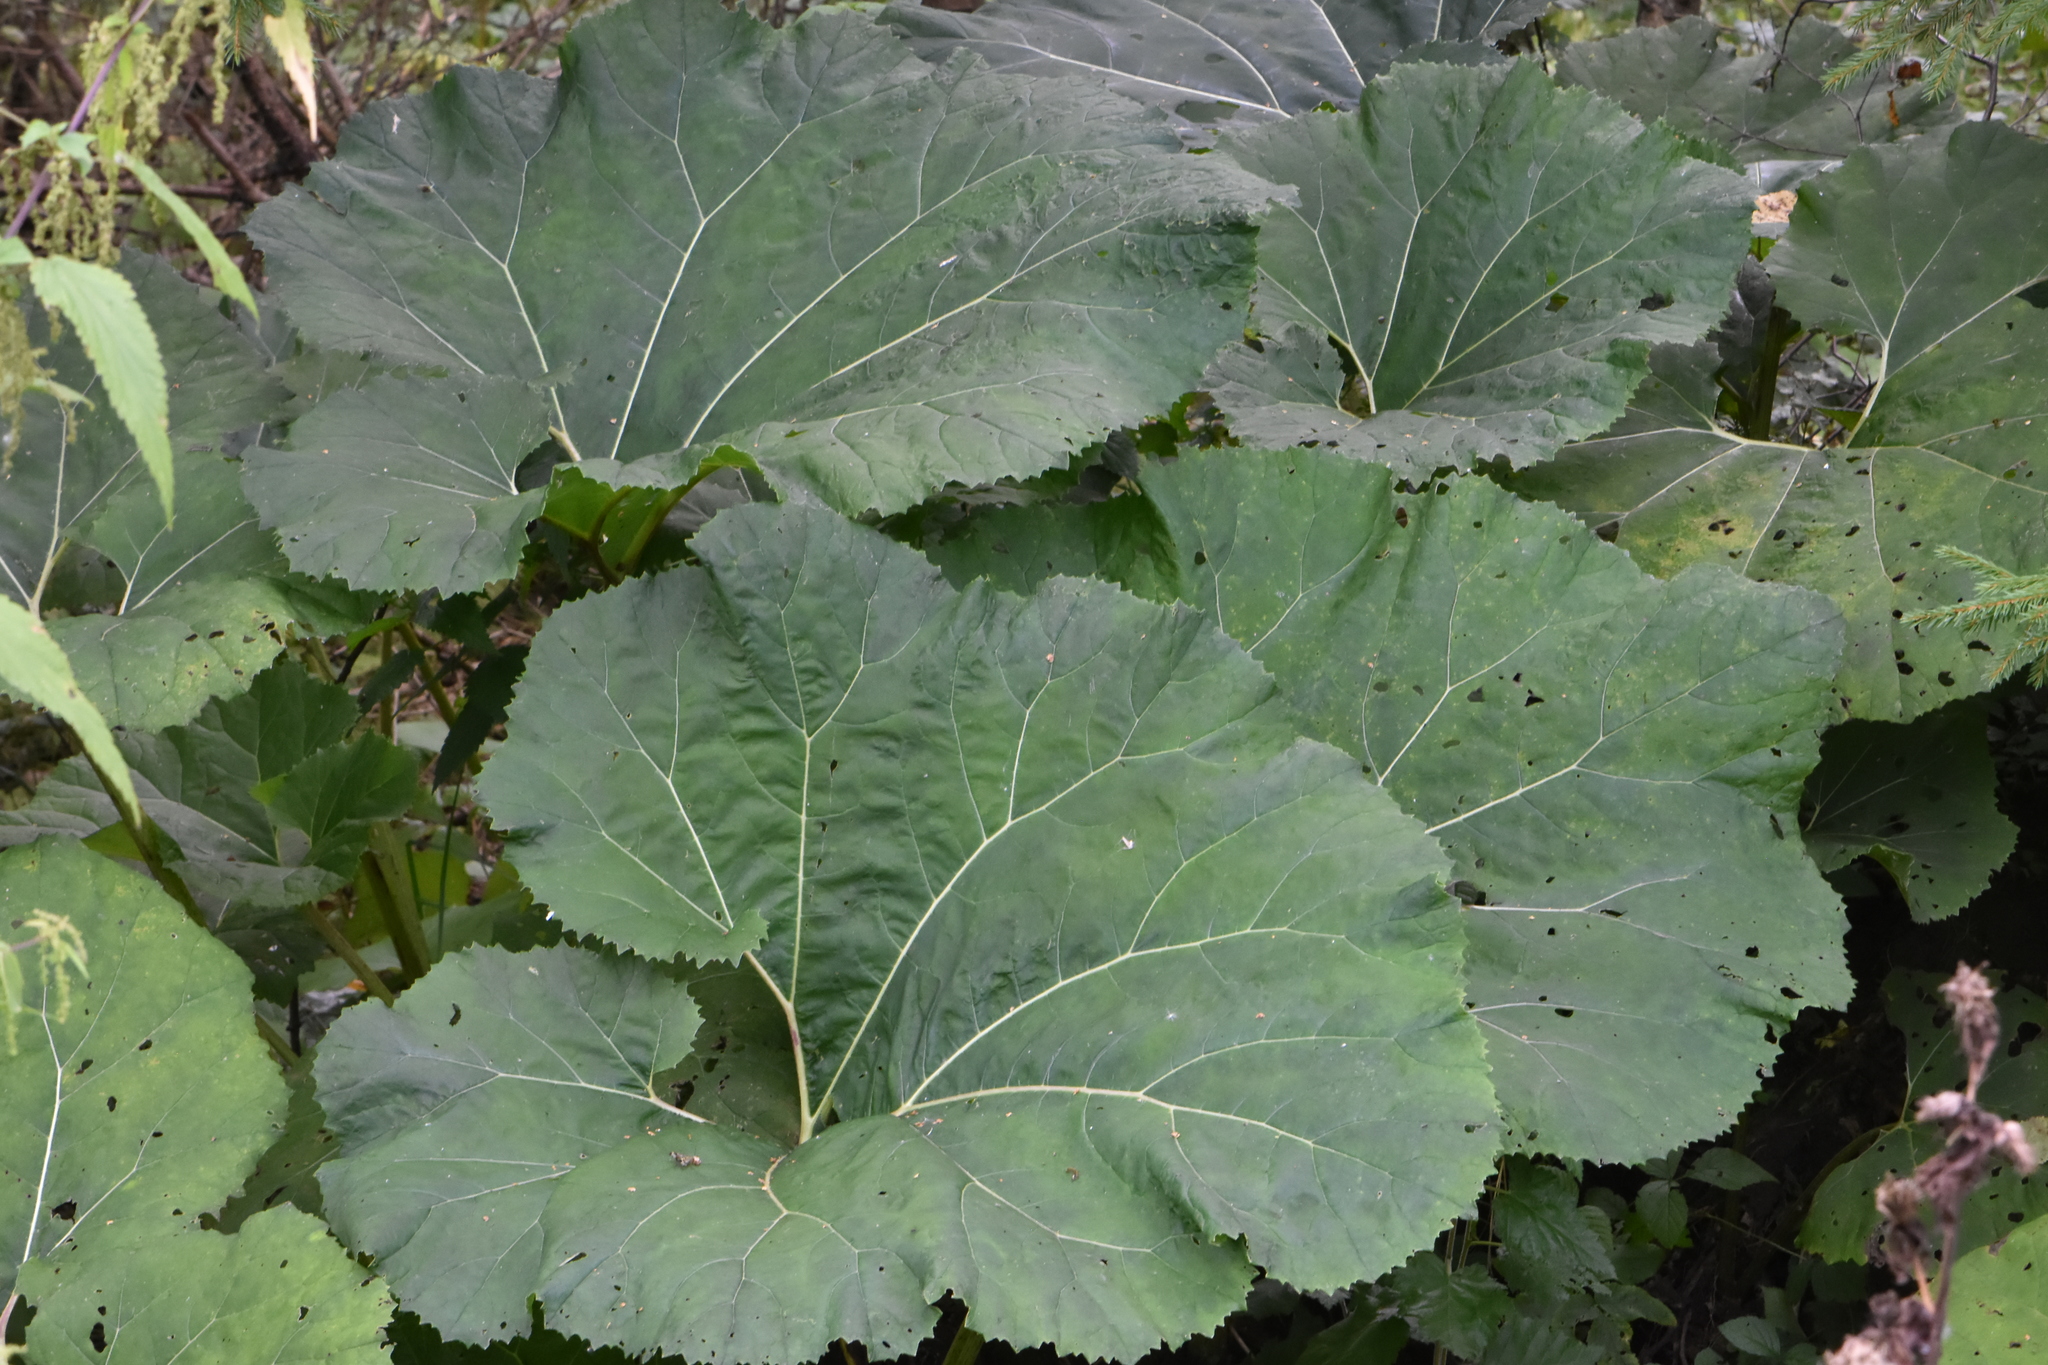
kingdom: Plantae
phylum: Tracheophyta
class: Magnoliopsida
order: Asterales
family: Asteraceae
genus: Petasites
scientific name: Petasites hybridus
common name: Butterbur
